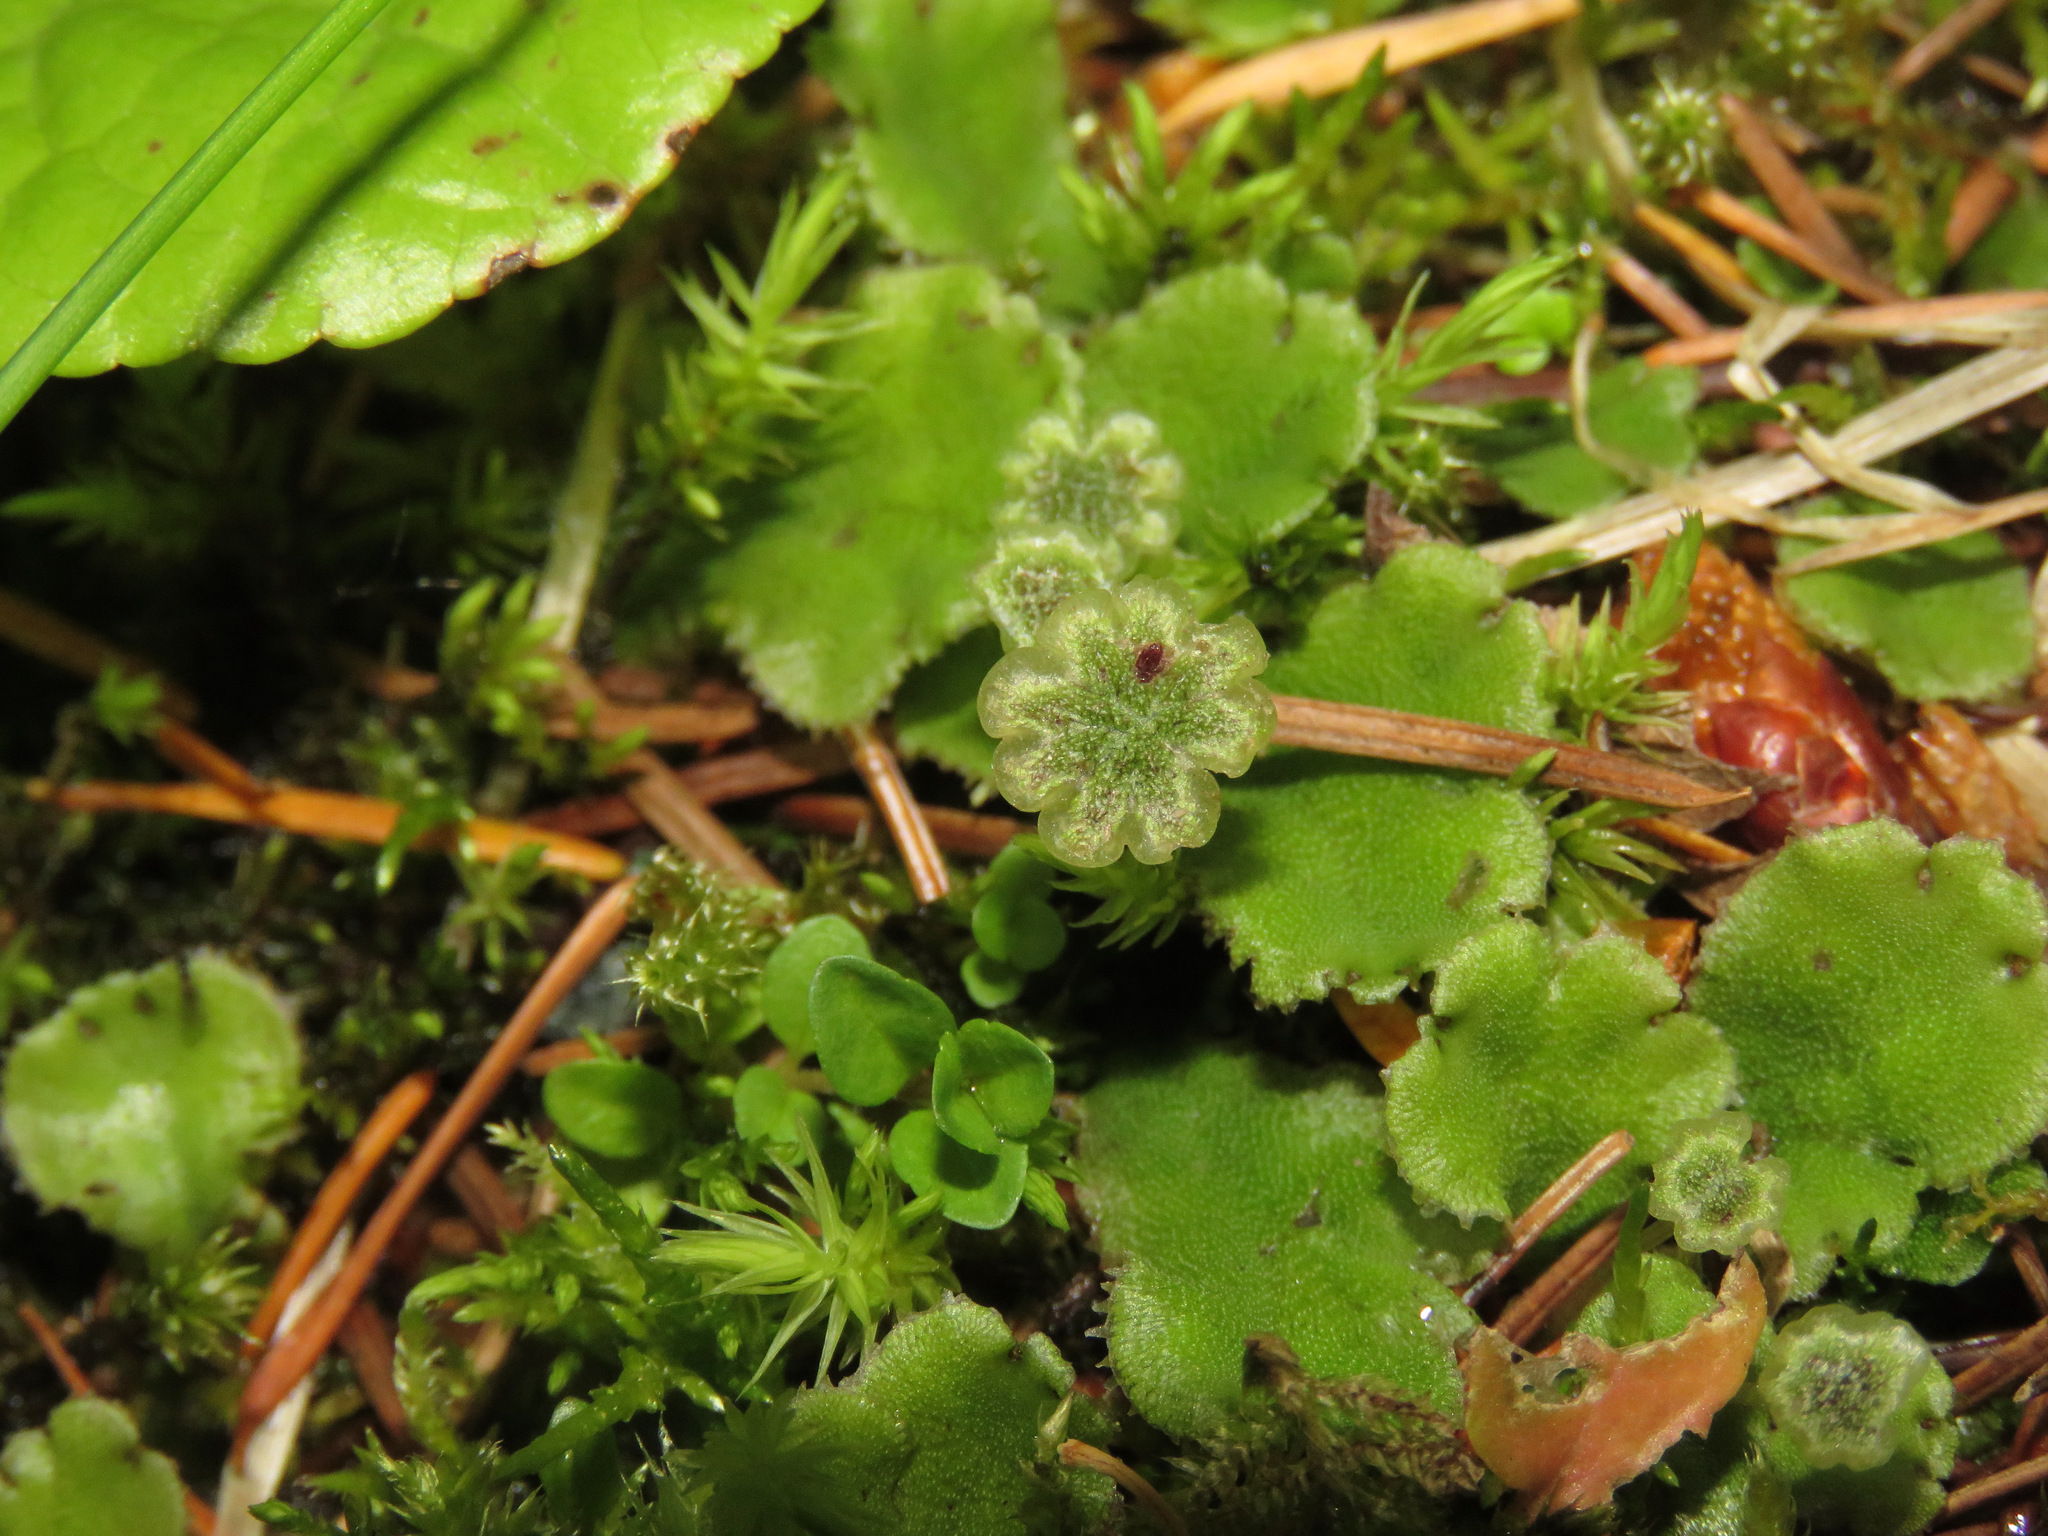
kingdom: Plantae
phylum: Marchantiophyta
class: Marchantiopsida
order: Marchantiales
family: Marchantiaceae
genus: Marchantia
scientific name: Marchantia polymorpha
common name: Common liverwort
